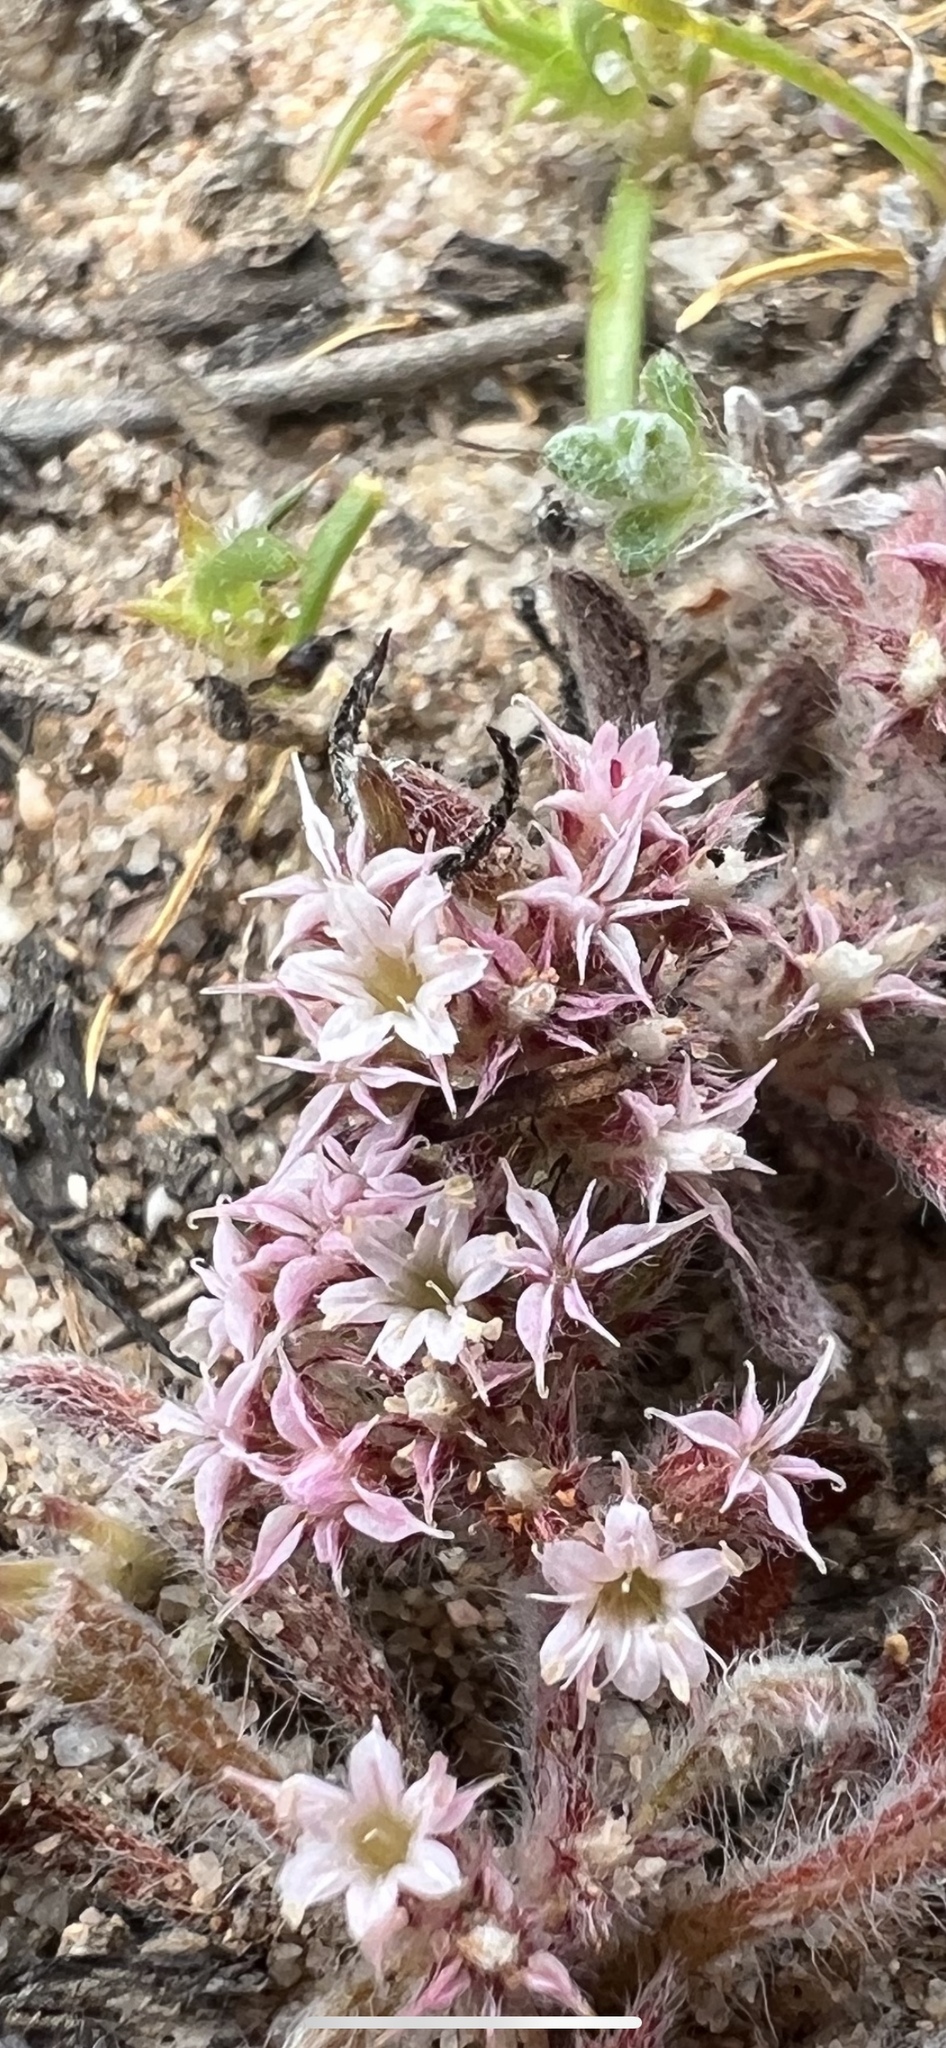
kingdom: Plantae
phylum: Tracheophyta
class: Magnoliopsida
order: Caryophyllales
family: Polygonaceae
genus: Chorizanthe
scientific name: Chorizanthe pungens
